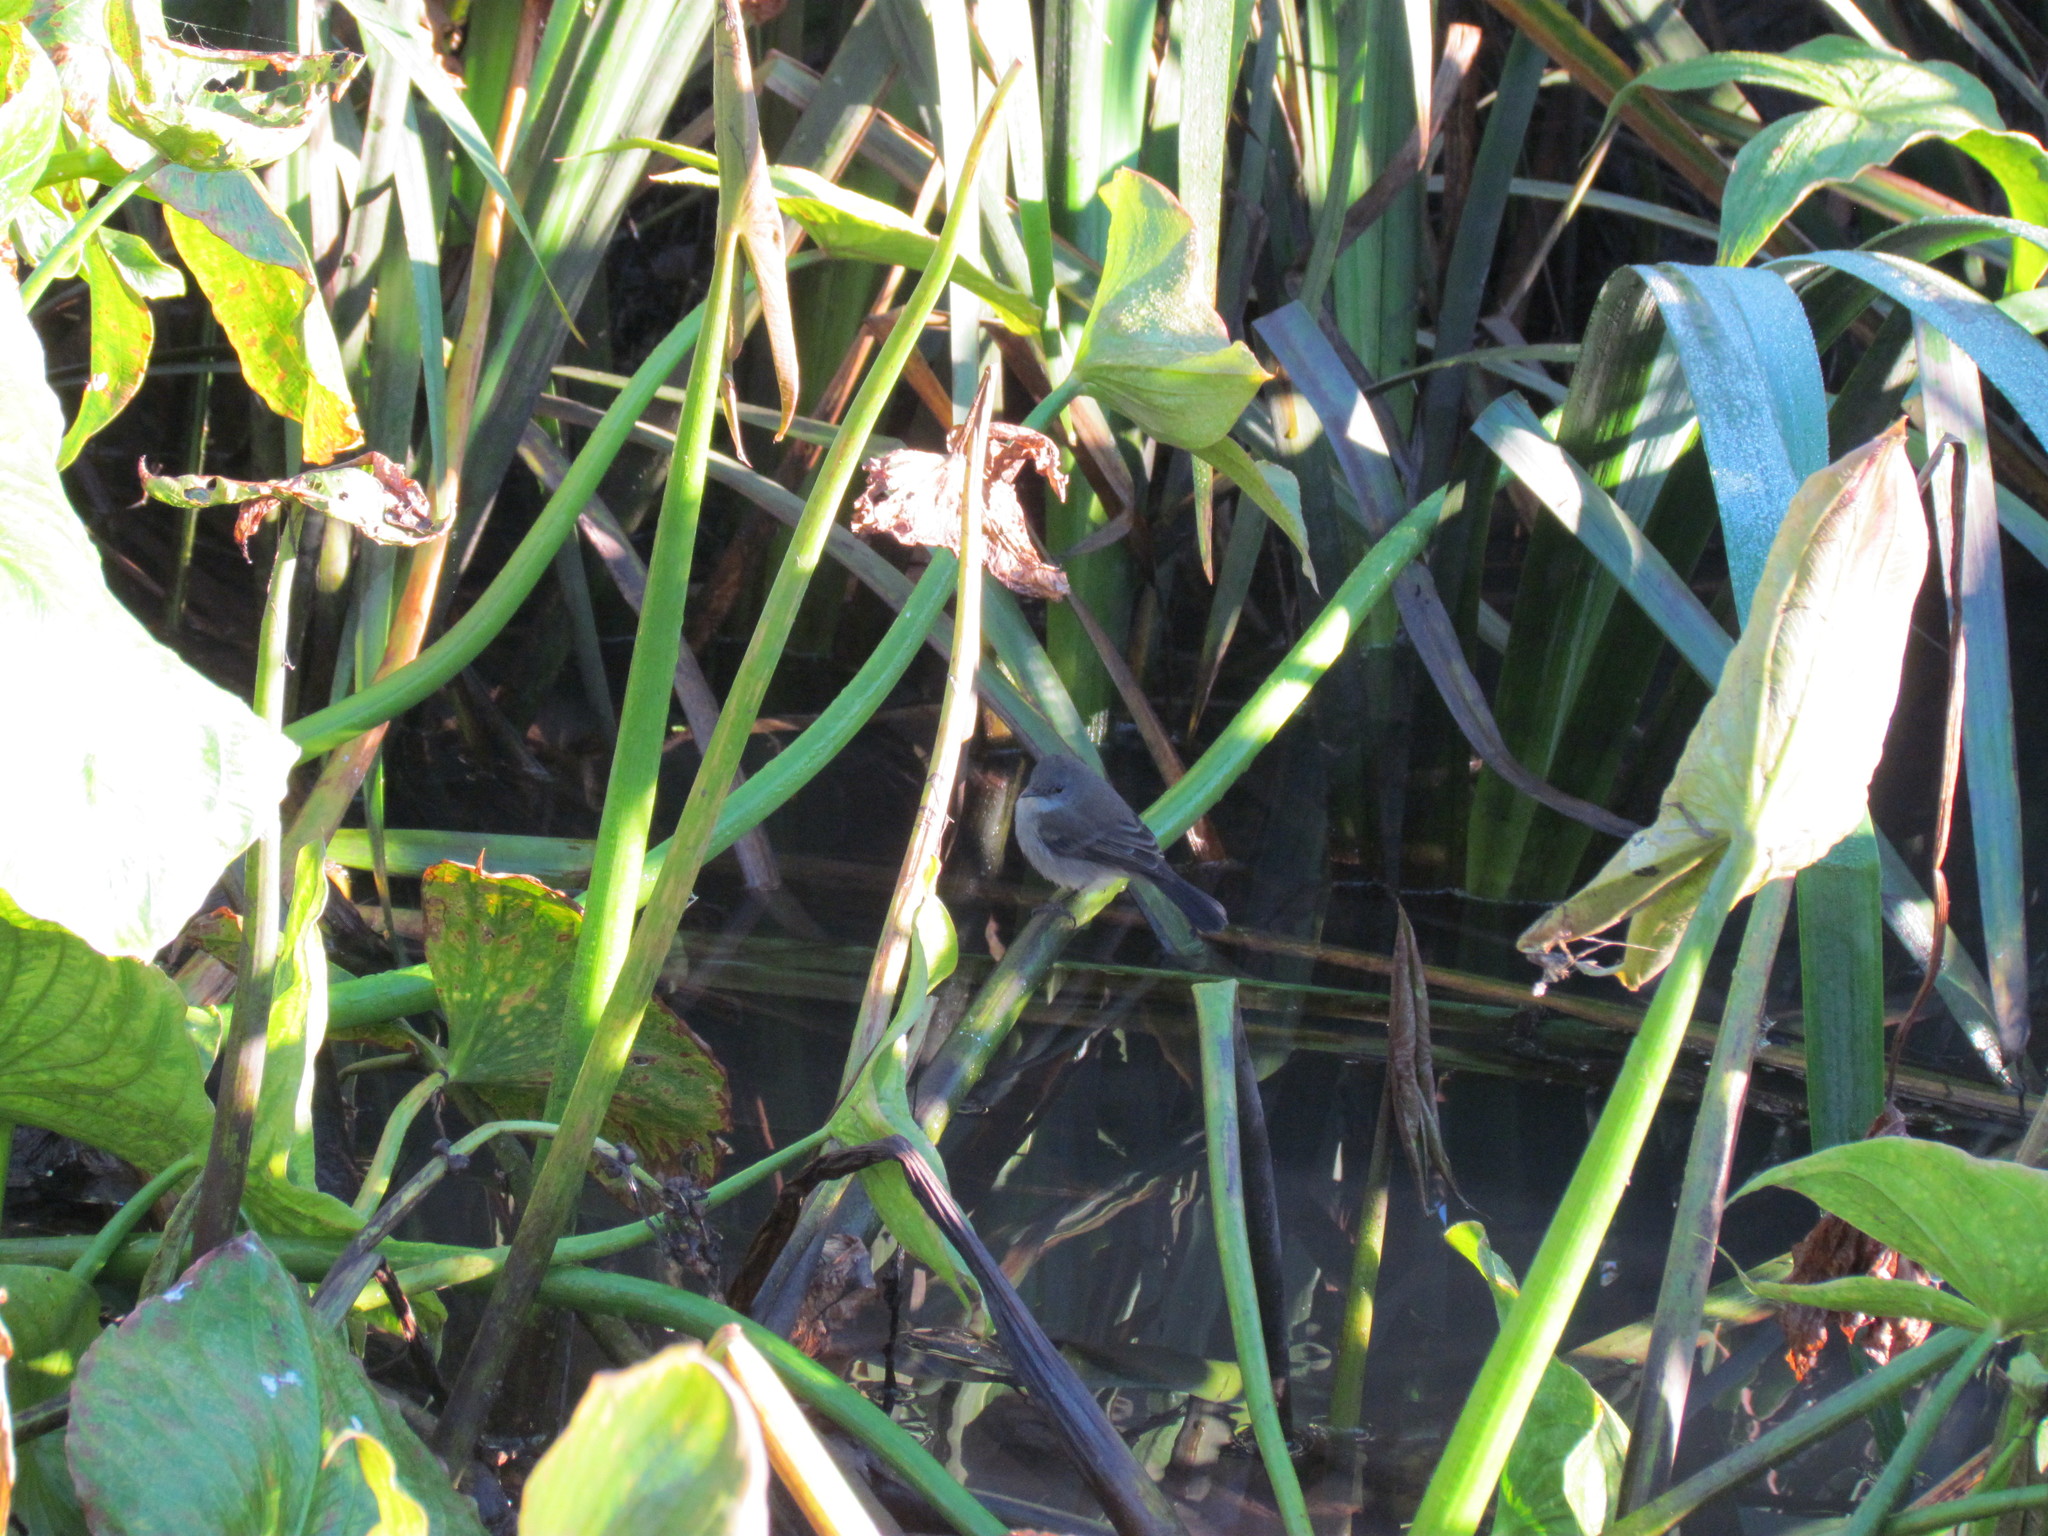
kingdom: Animalia
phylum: Chordata
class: Aves
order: Passeriformes
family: Tyrannidae
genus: Serpophaga
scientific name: Serpophaga nigricans
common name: Sooty tyrannulet
